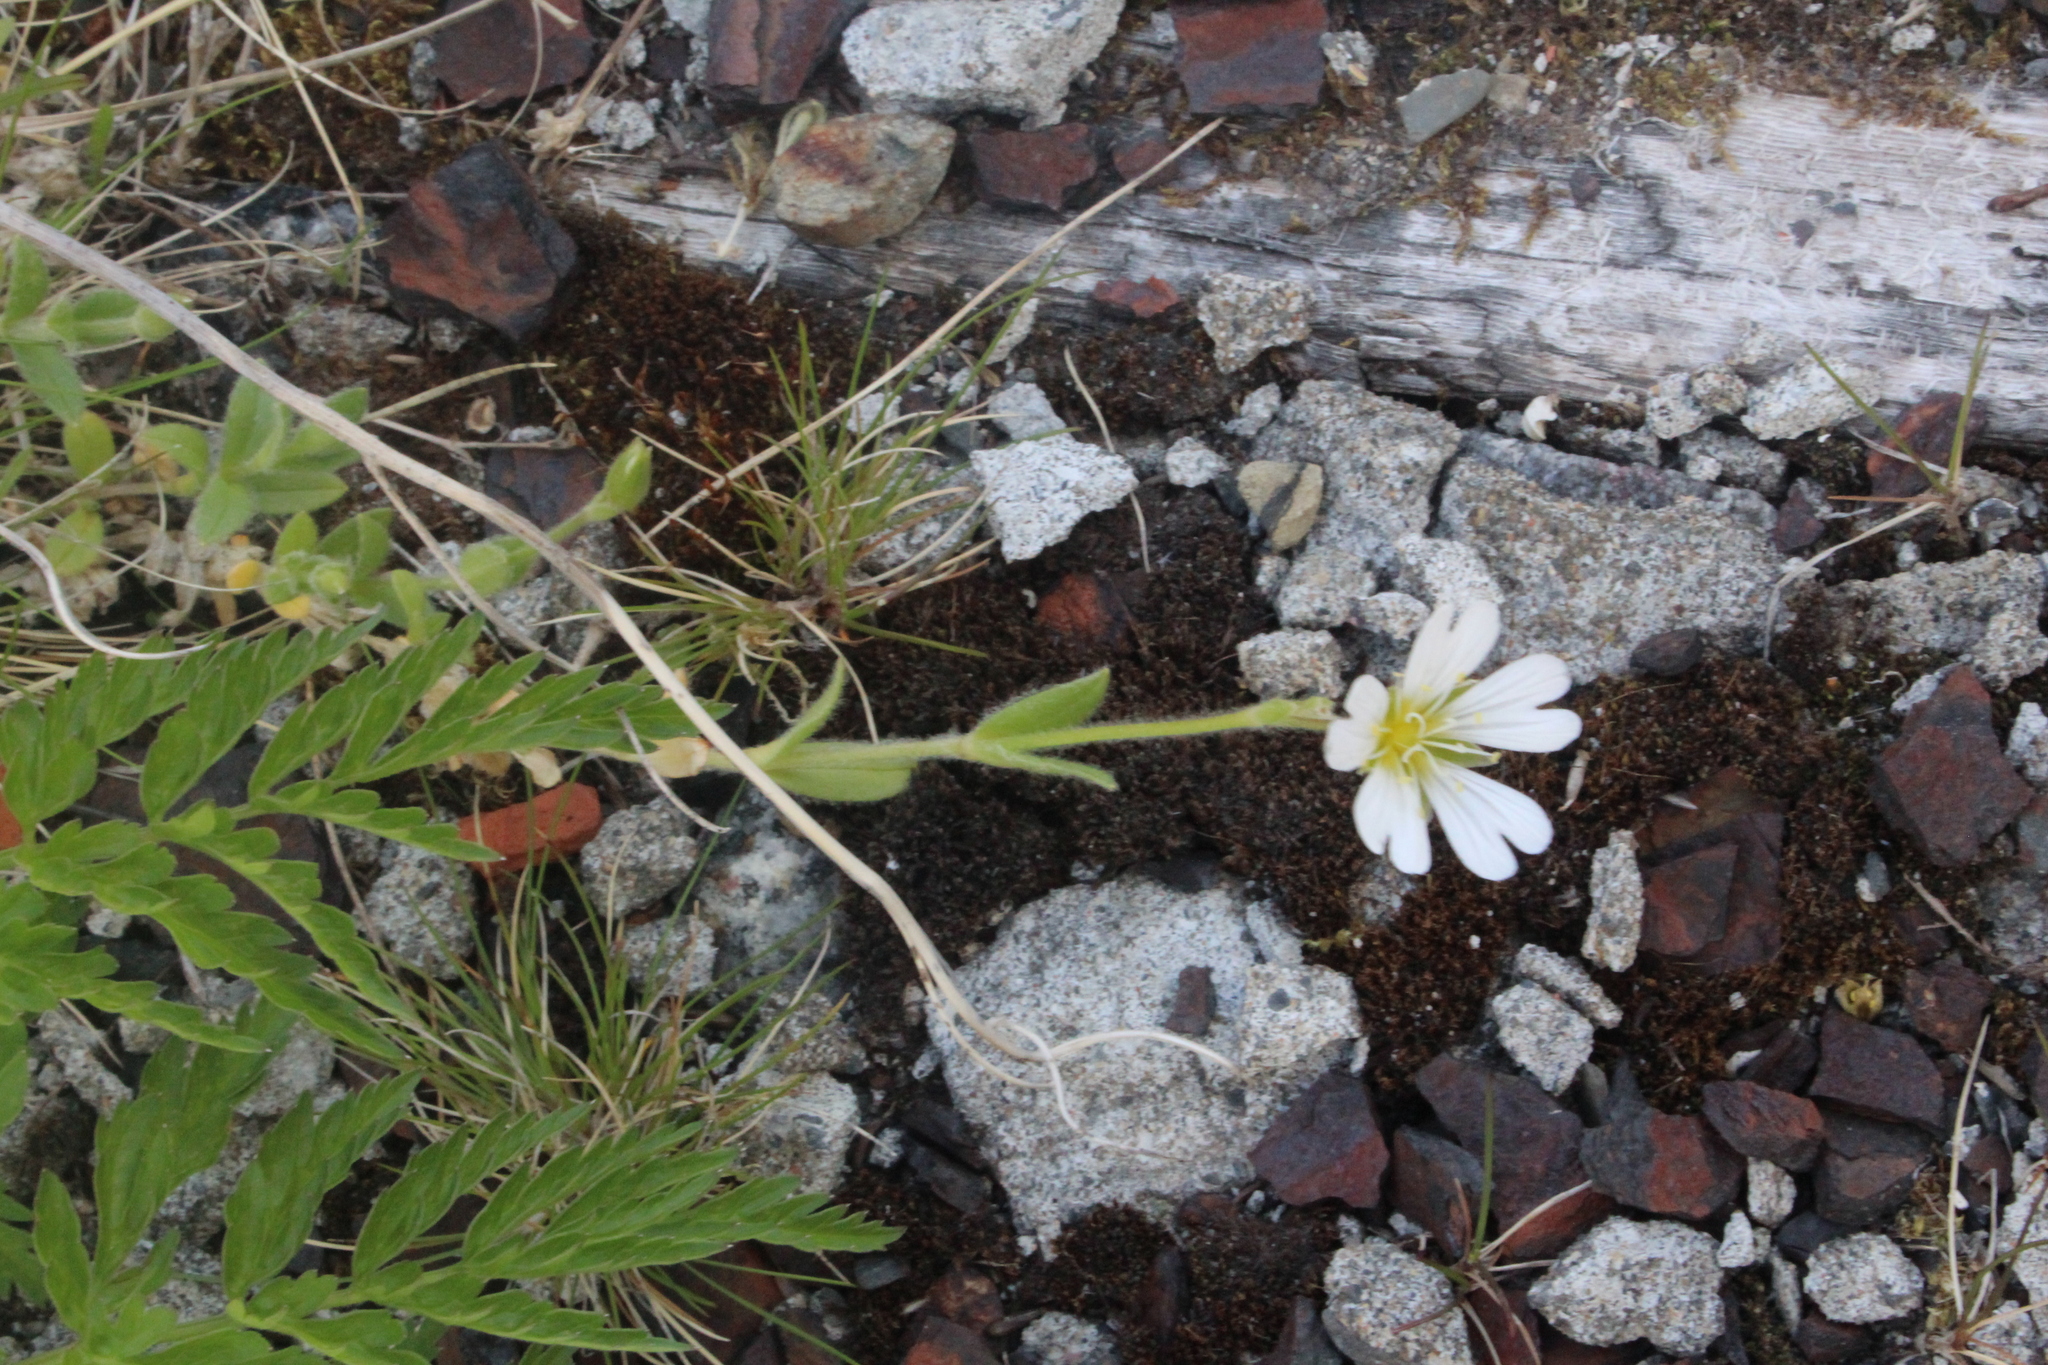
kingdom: Plantae
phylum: Tracheophyta
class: Magnoliopsida
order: Caryophyllales
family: Caryophyllaceae
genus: Cerastium
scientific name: Cerastium alpinum
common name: Alpine mouse-ear
